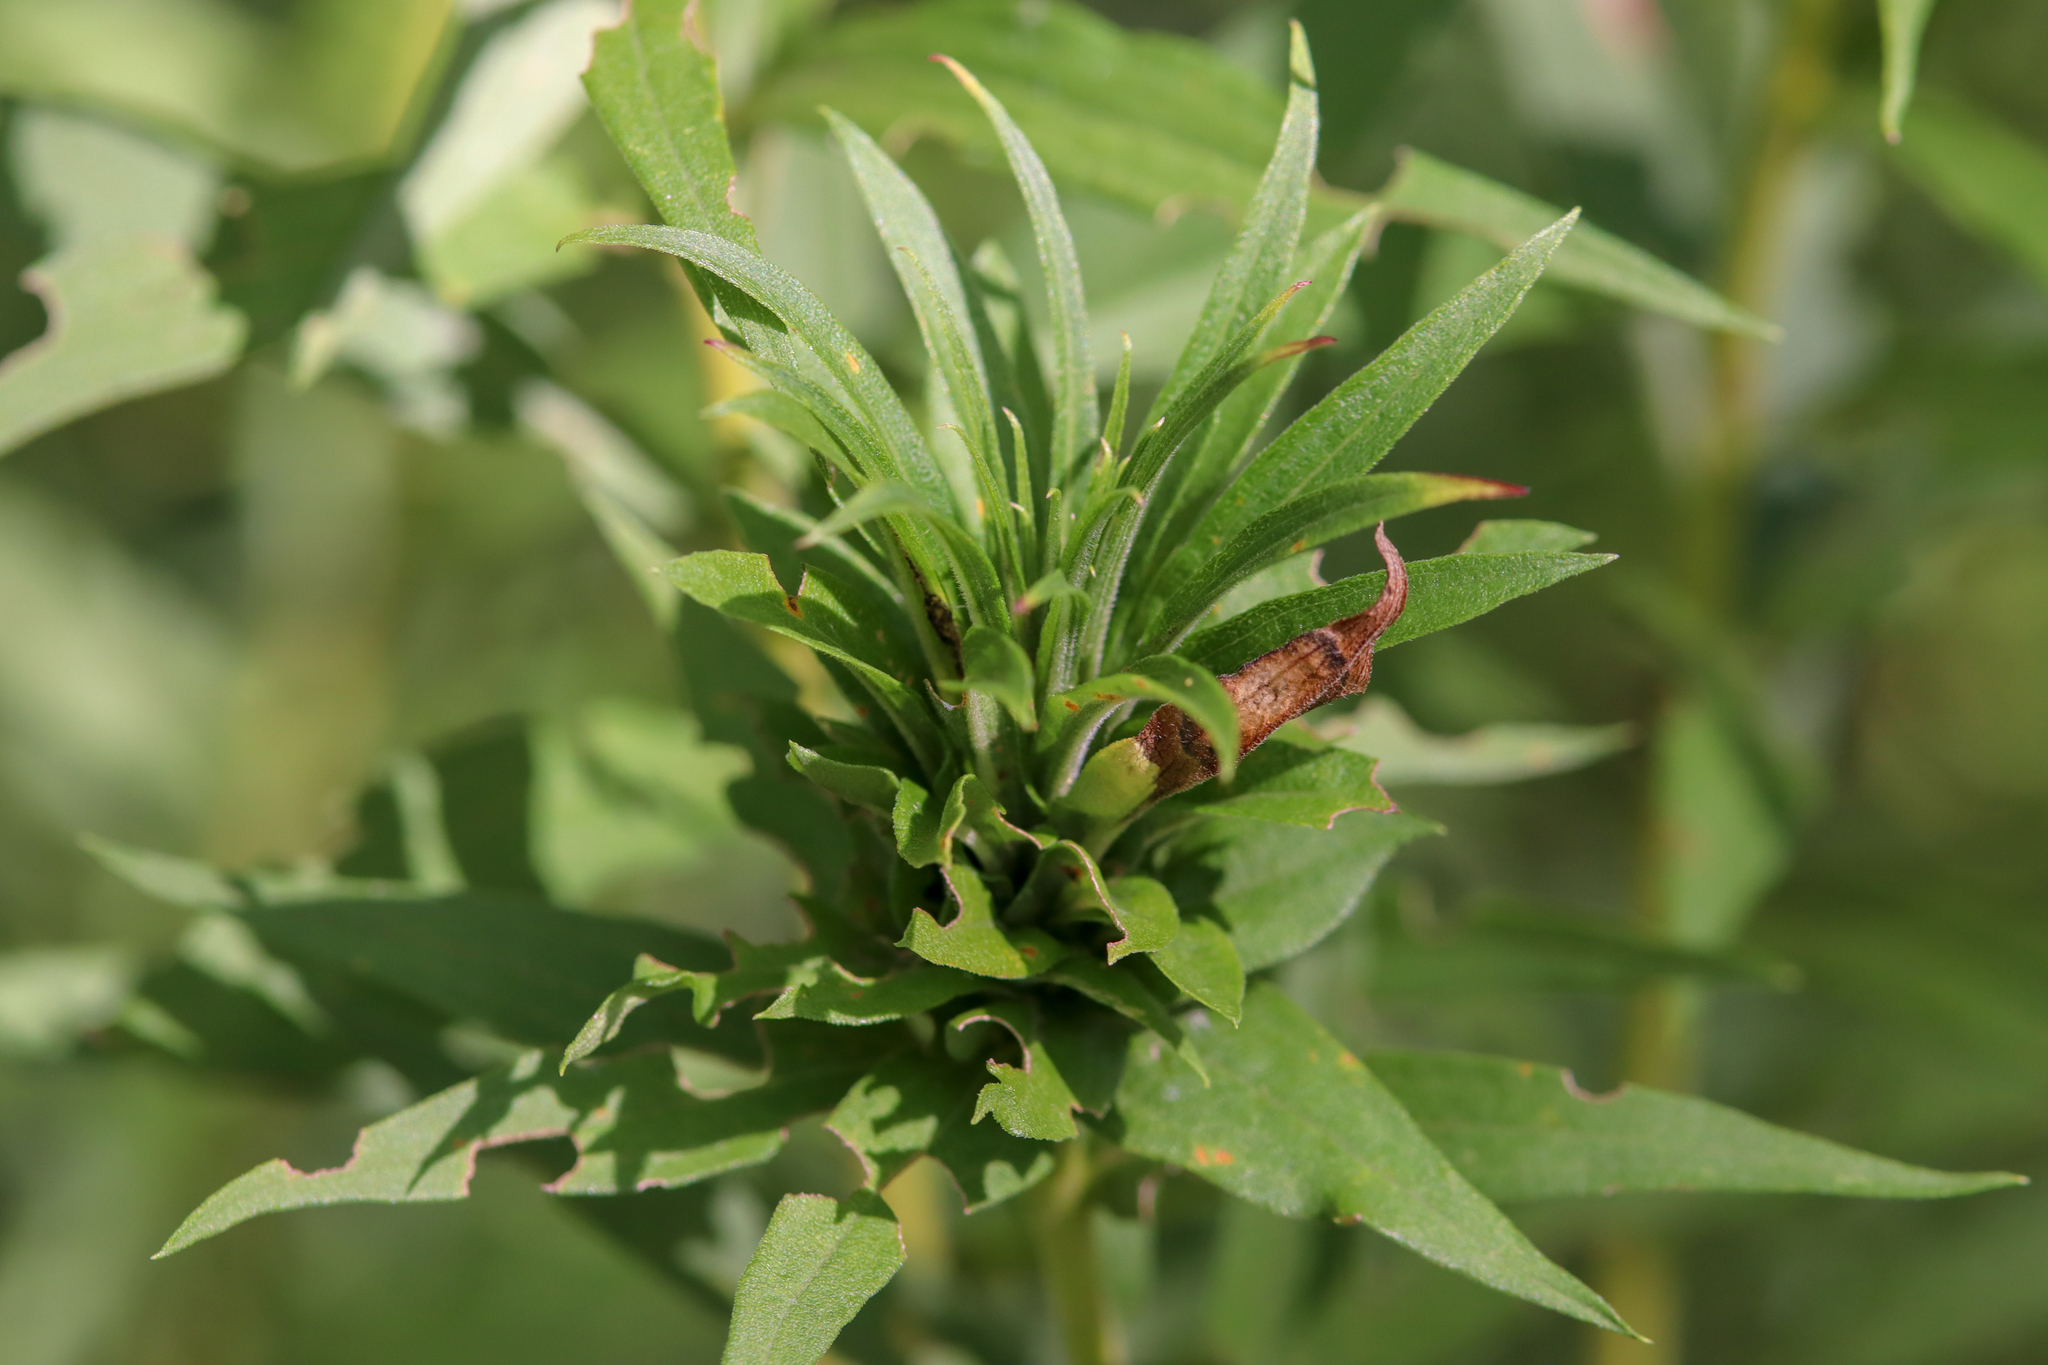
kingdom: Animalia
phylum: Arthropoda
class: Insecta
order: Diptera
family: Cecidomyiidae
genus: Rhopalomyia
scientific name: Rhopalomyia solidaginis
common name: Goldenrod bunch gall midge
